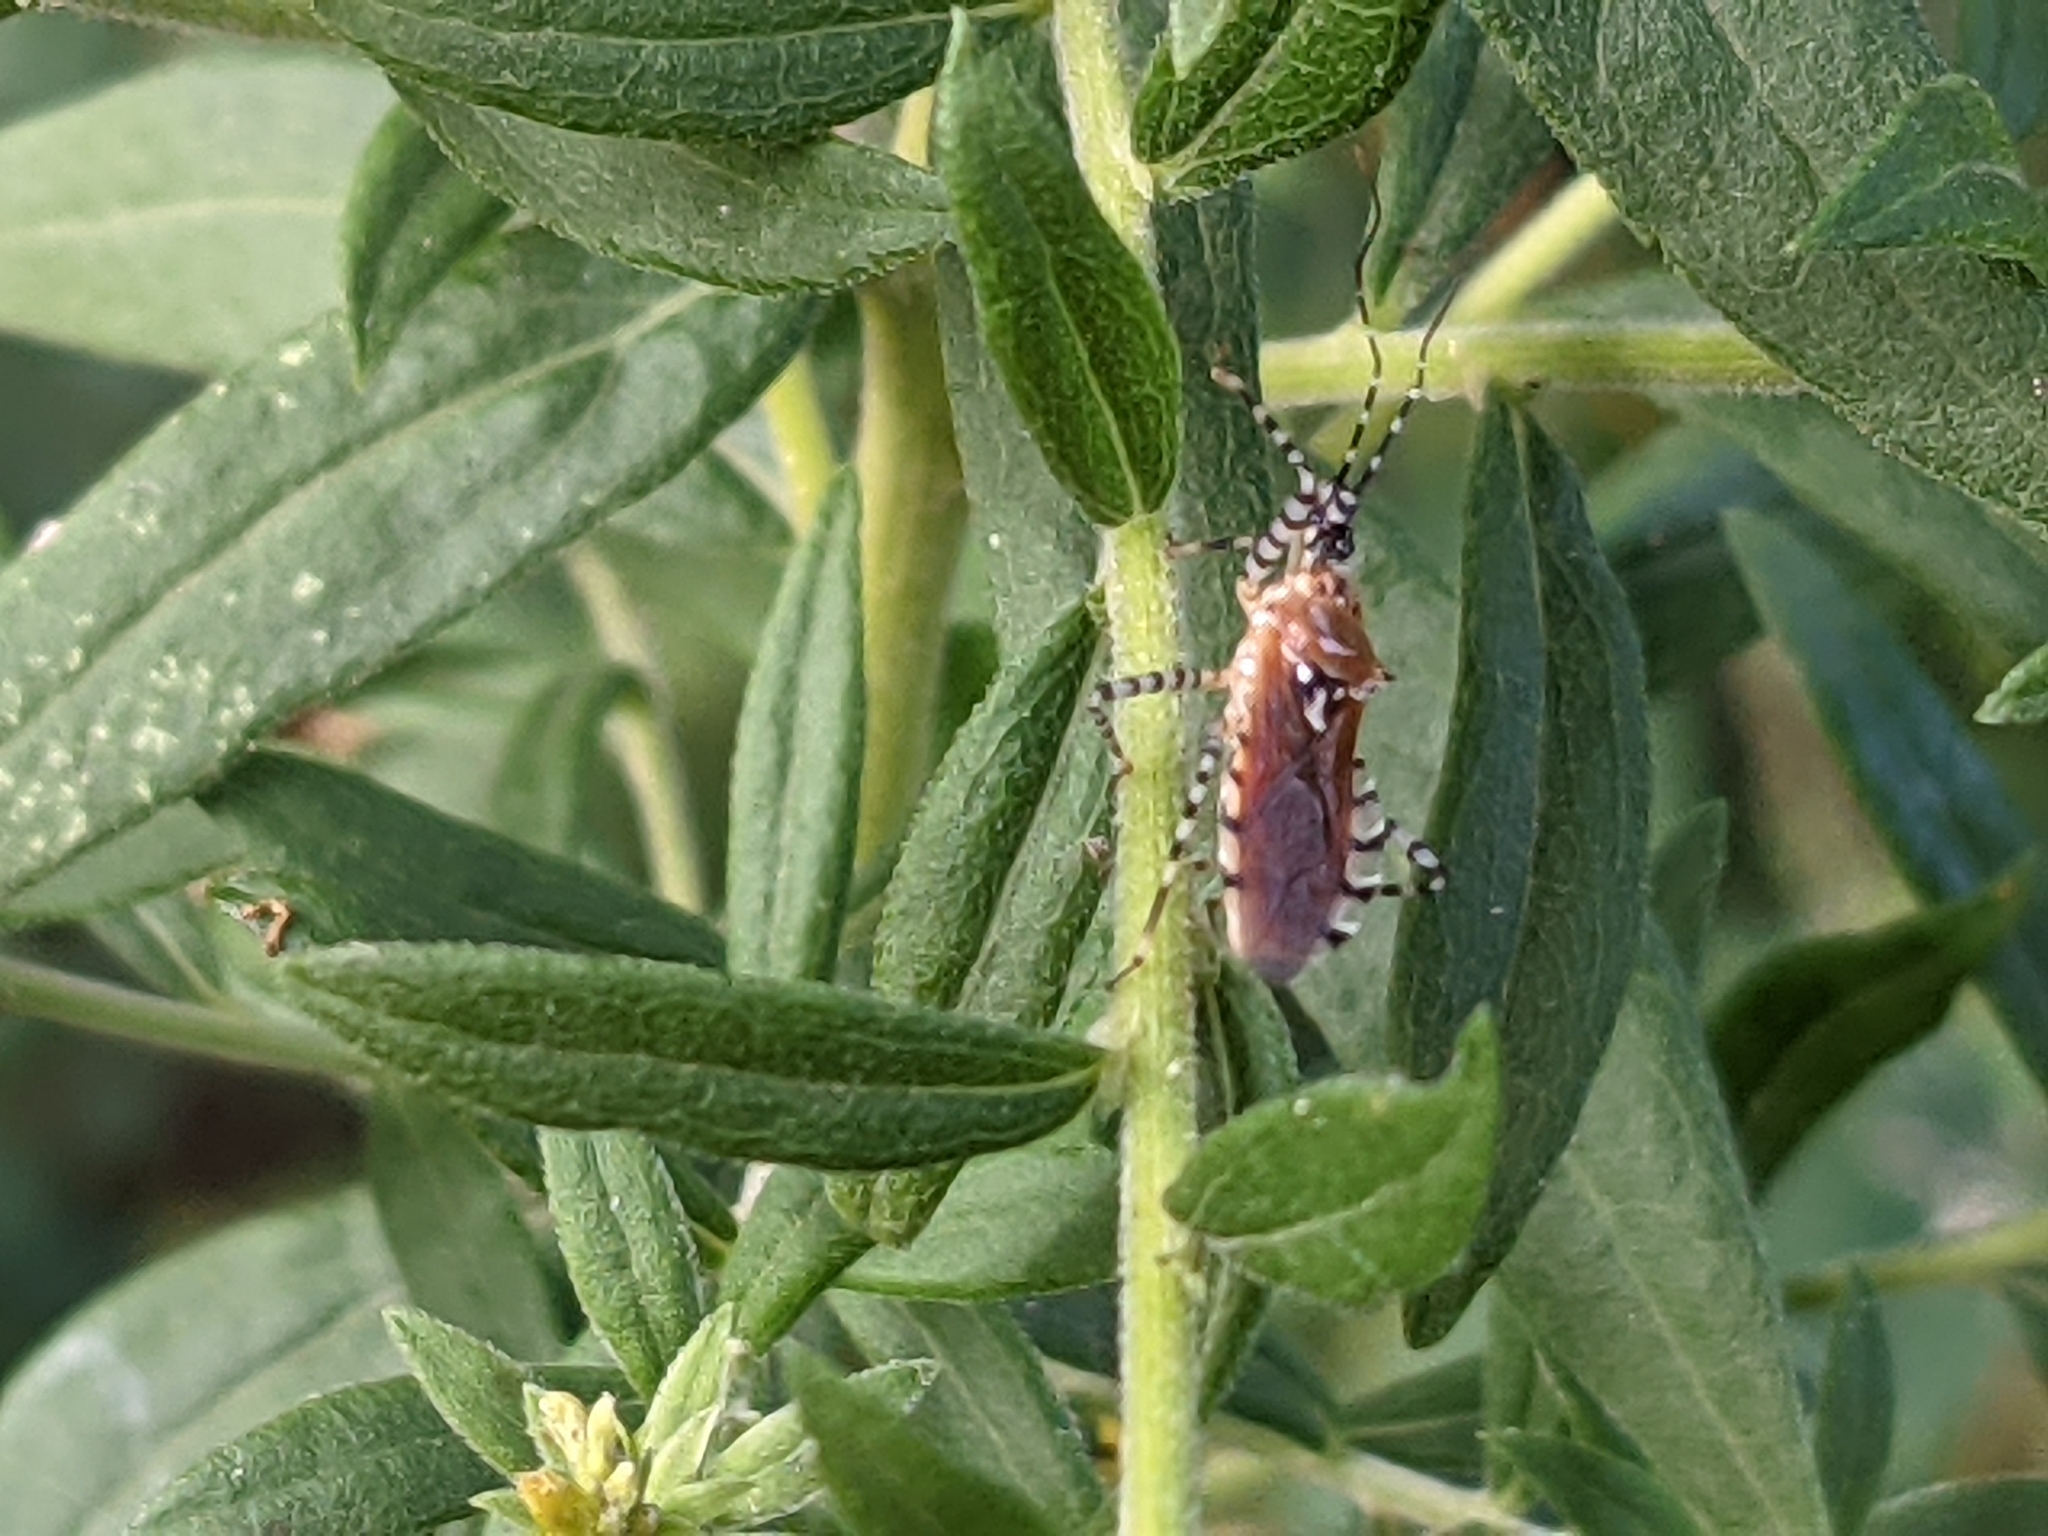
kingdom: Animalia
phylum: Arthropoda
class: Insecta
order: Hemiptera
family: Reduviidae
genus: Pselliopus
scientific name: Pselliopus cinctus
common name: Ringed assassin bug
